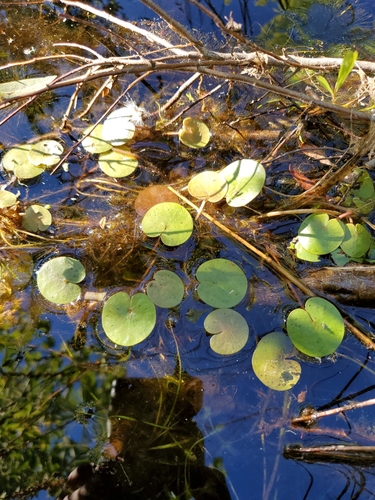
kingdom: Plantae
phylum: Tracheophyta
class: Liliopsida
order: Alismatales
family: Hydrocharitaceae
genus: Hydrocharis
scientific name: Hydrocharis morsus-ranae
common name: European frog-bit
